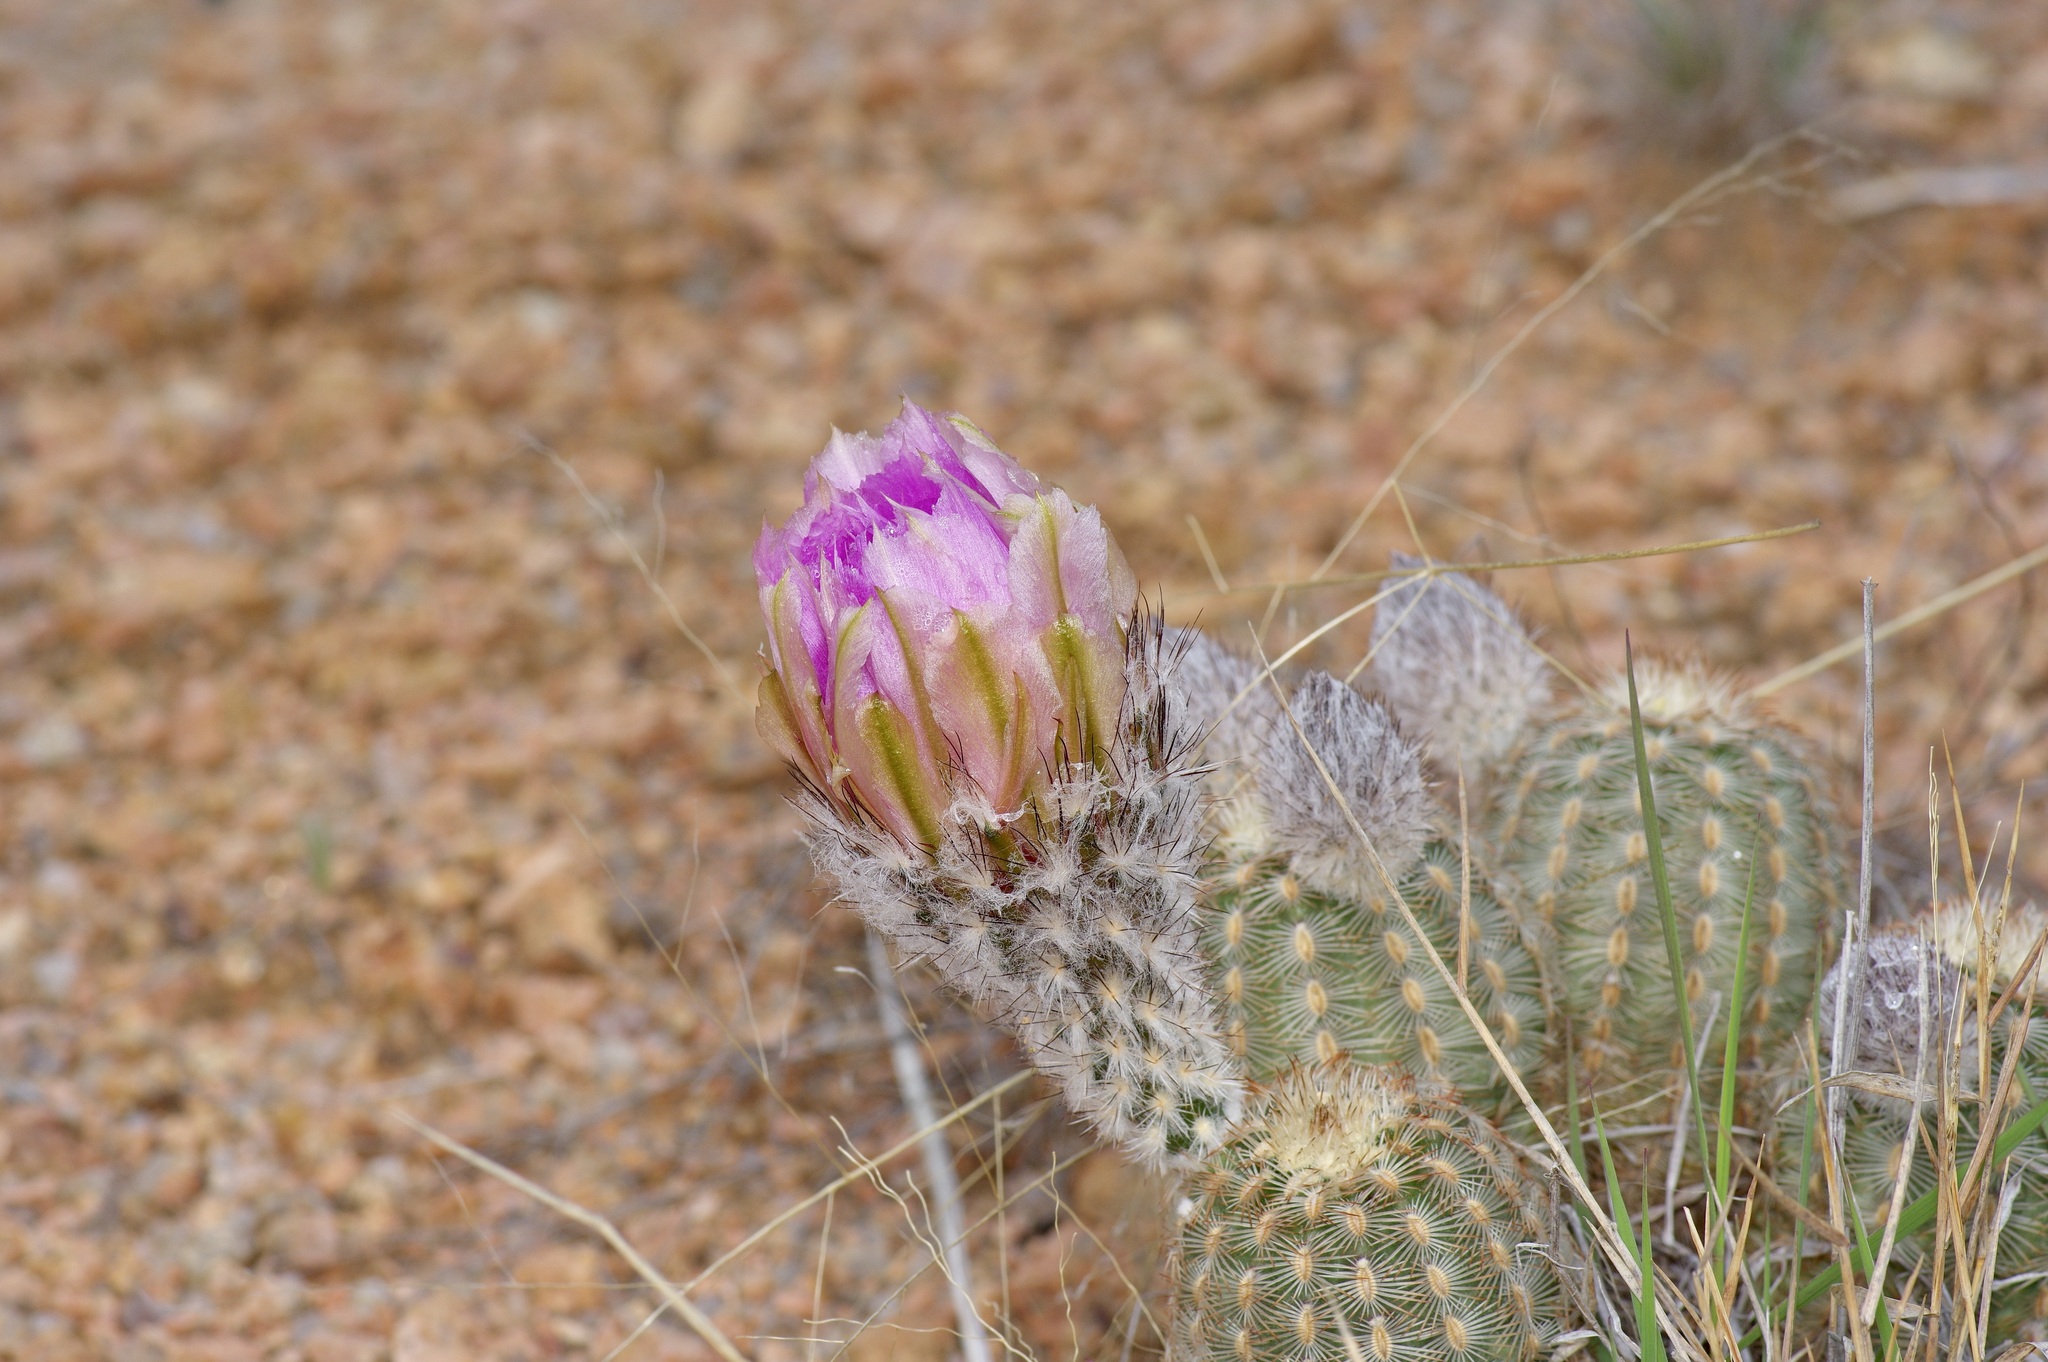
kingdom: Plantae
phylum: Tracheophyta
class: Magnoliopsida
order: Caryophyllales
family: Cactaceae
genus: Echinocereus
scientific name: Echinocereus reichenbachii
